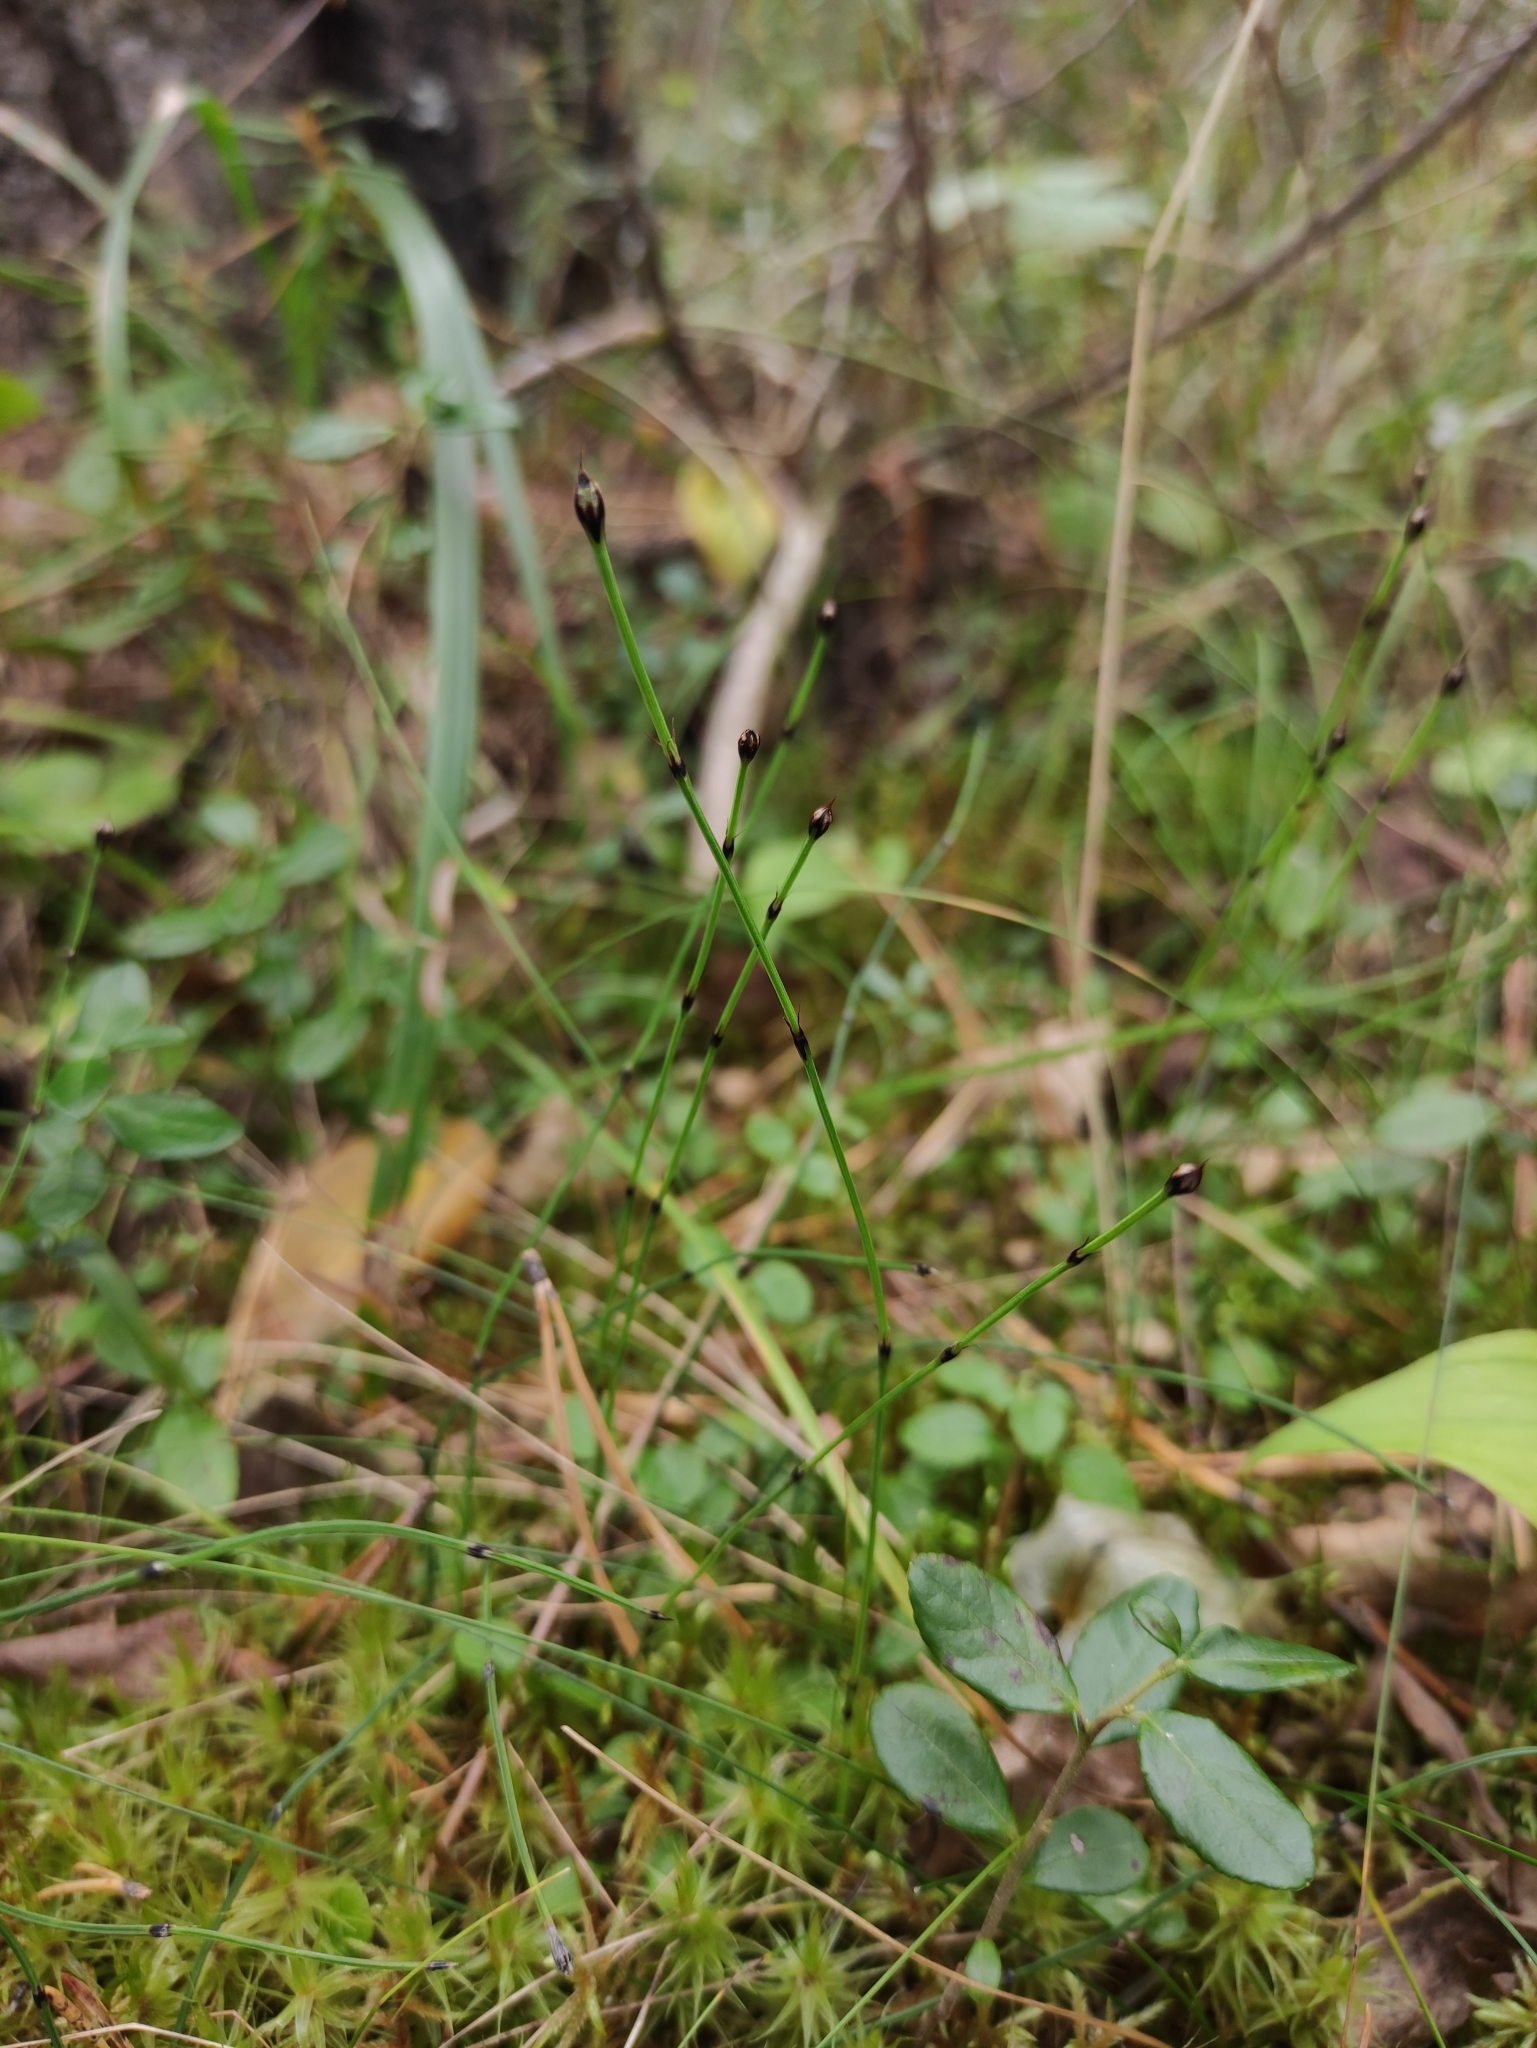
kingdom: Plantae
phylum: Tracheophyta
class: Polypodiopsida
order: Equisetales
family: Equisetaceae
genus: Equisetum
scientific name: Equisetum scirpoides
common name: Delicate horsetail
